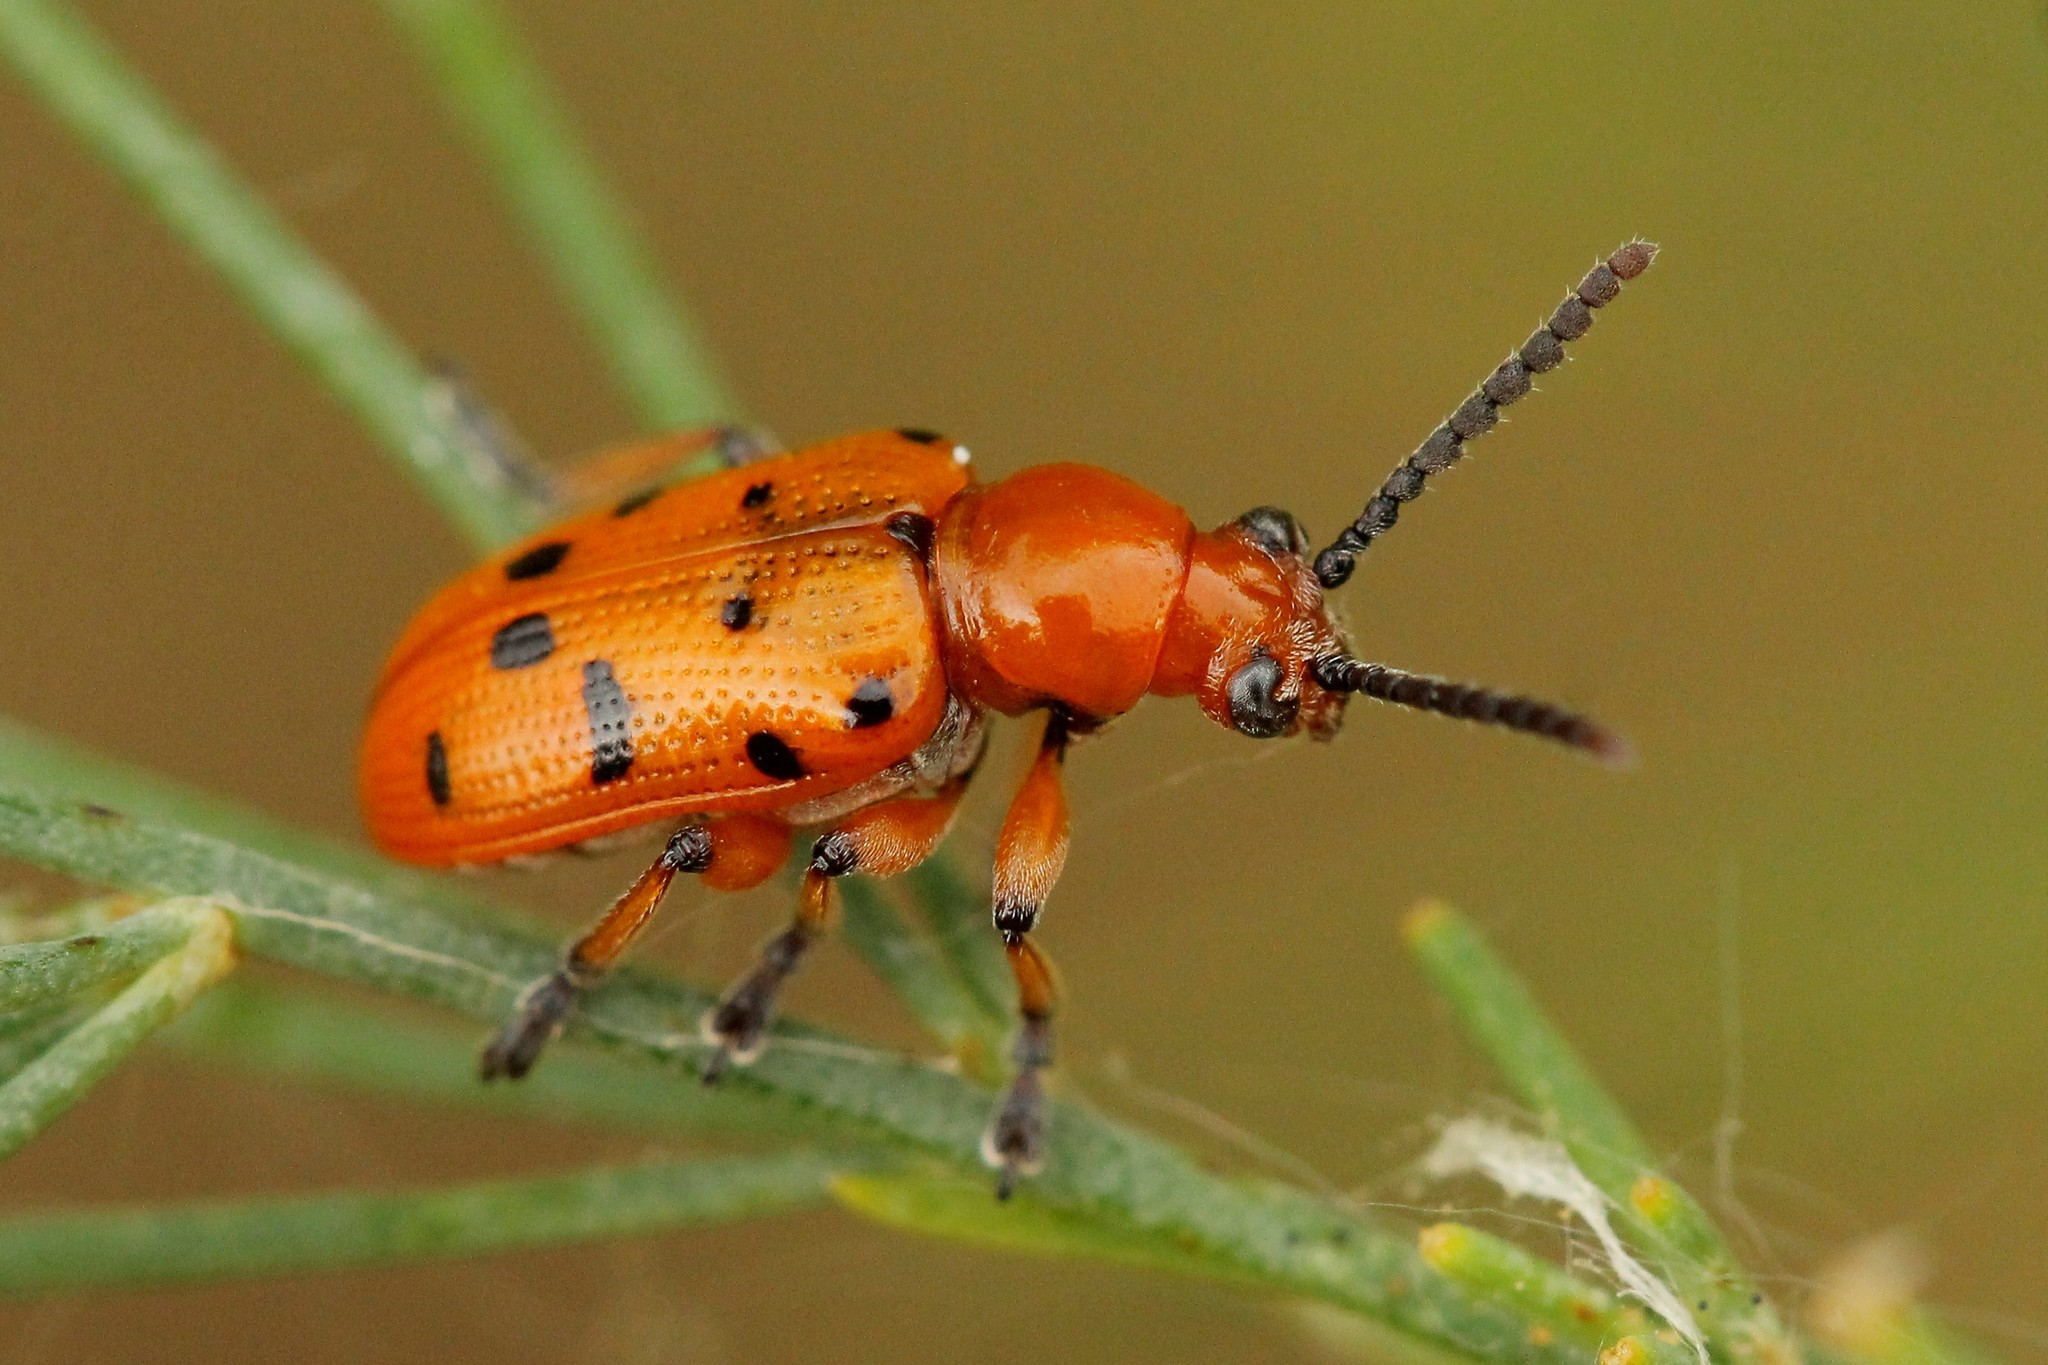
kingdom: Animalia
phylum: Arthropoda
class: Insecta
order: Coleoptera
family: Chrysomelidae
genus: Crioceris
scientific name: Crioceris duodecimpunctata
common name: Twelve-spotted asparagus beetle
